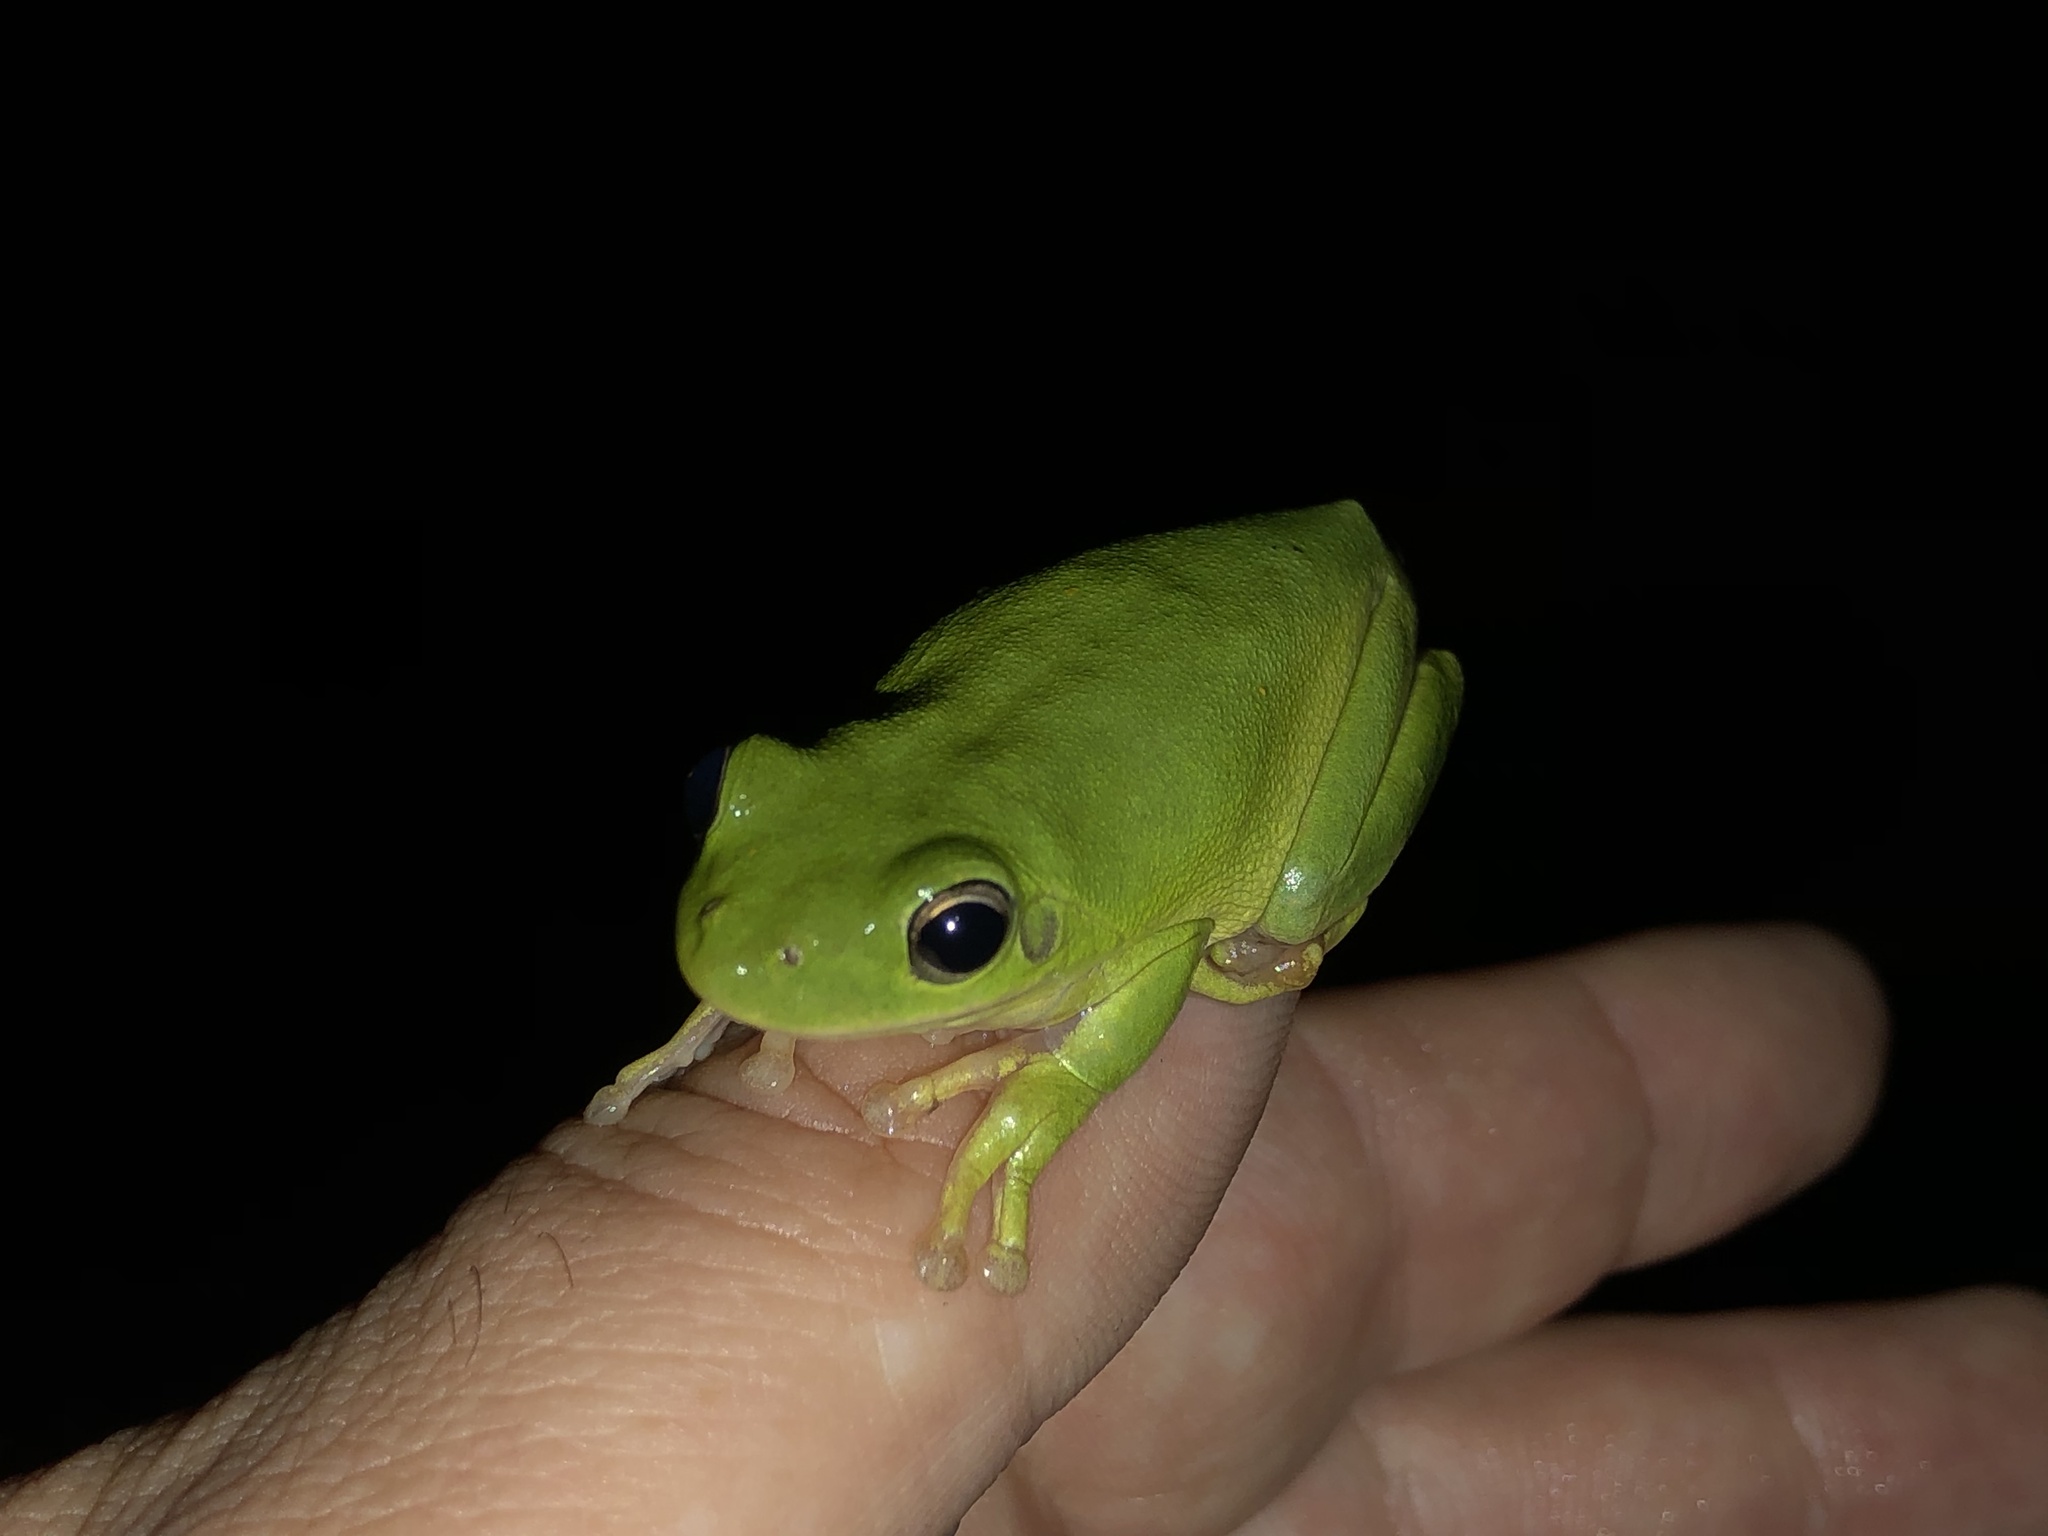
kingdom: Animalia
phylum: Chordata
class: Amphibia
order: Anura
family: Hylidae
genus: Dryophytes
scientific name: Dryophytes cinereus
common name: Green treefrog
